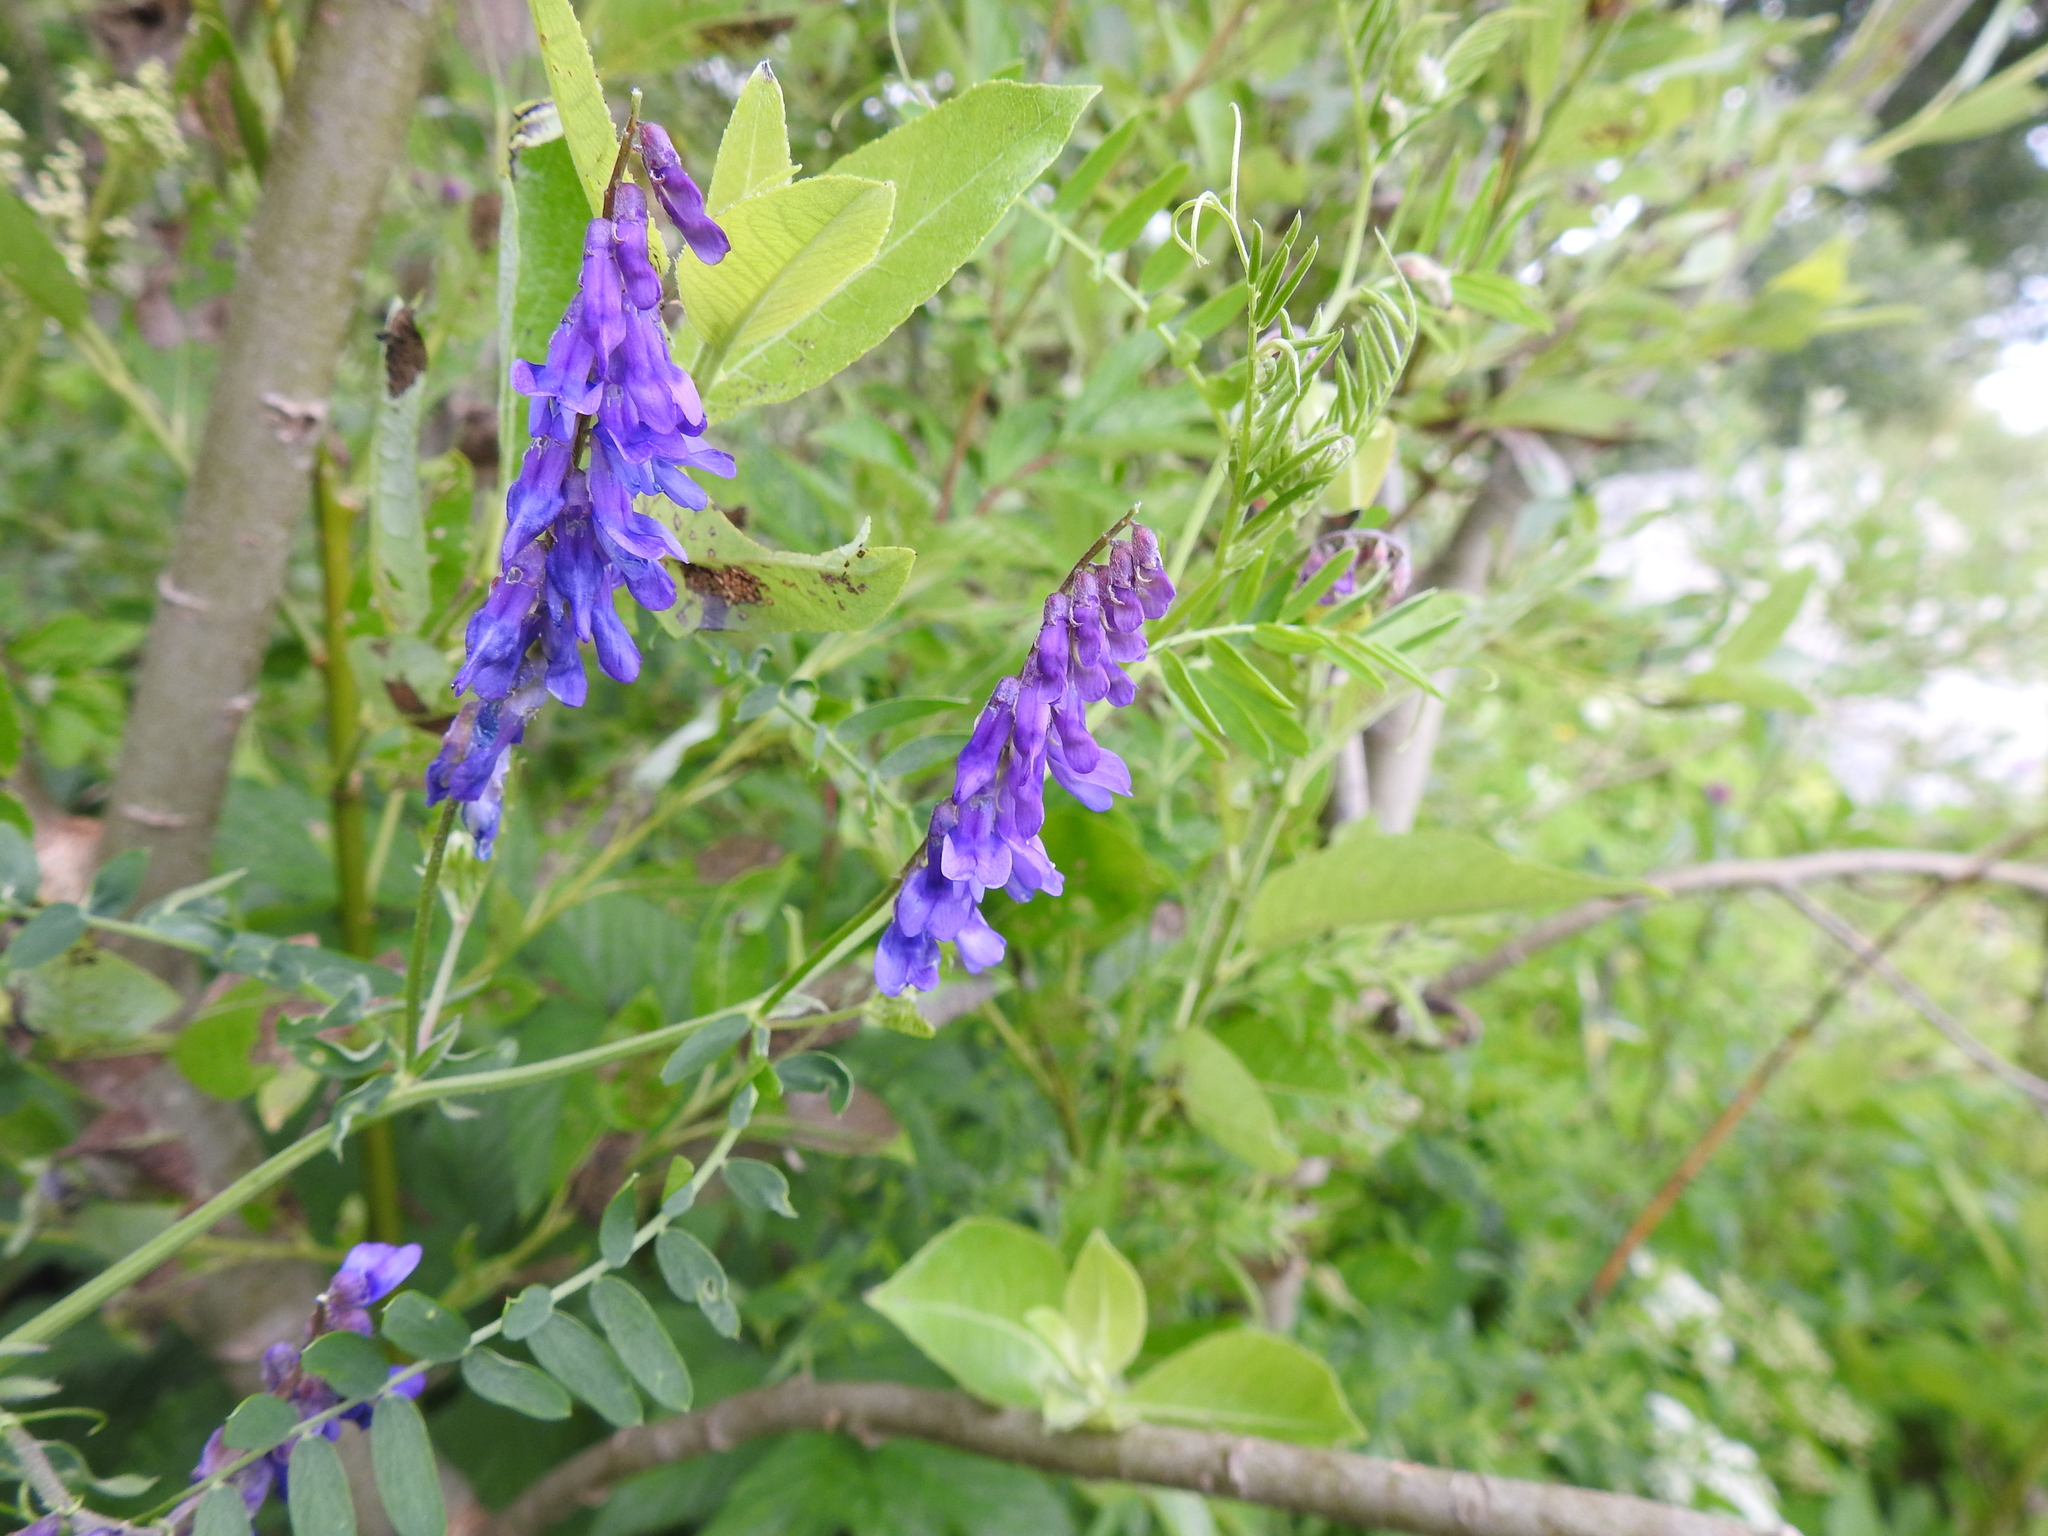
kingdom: Plantae
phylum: Tracheophyta
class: Magnoliopsida
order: Fabales
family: Fabaceae
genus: Vicia
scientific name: Vicia cracca
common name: Bird vetch
